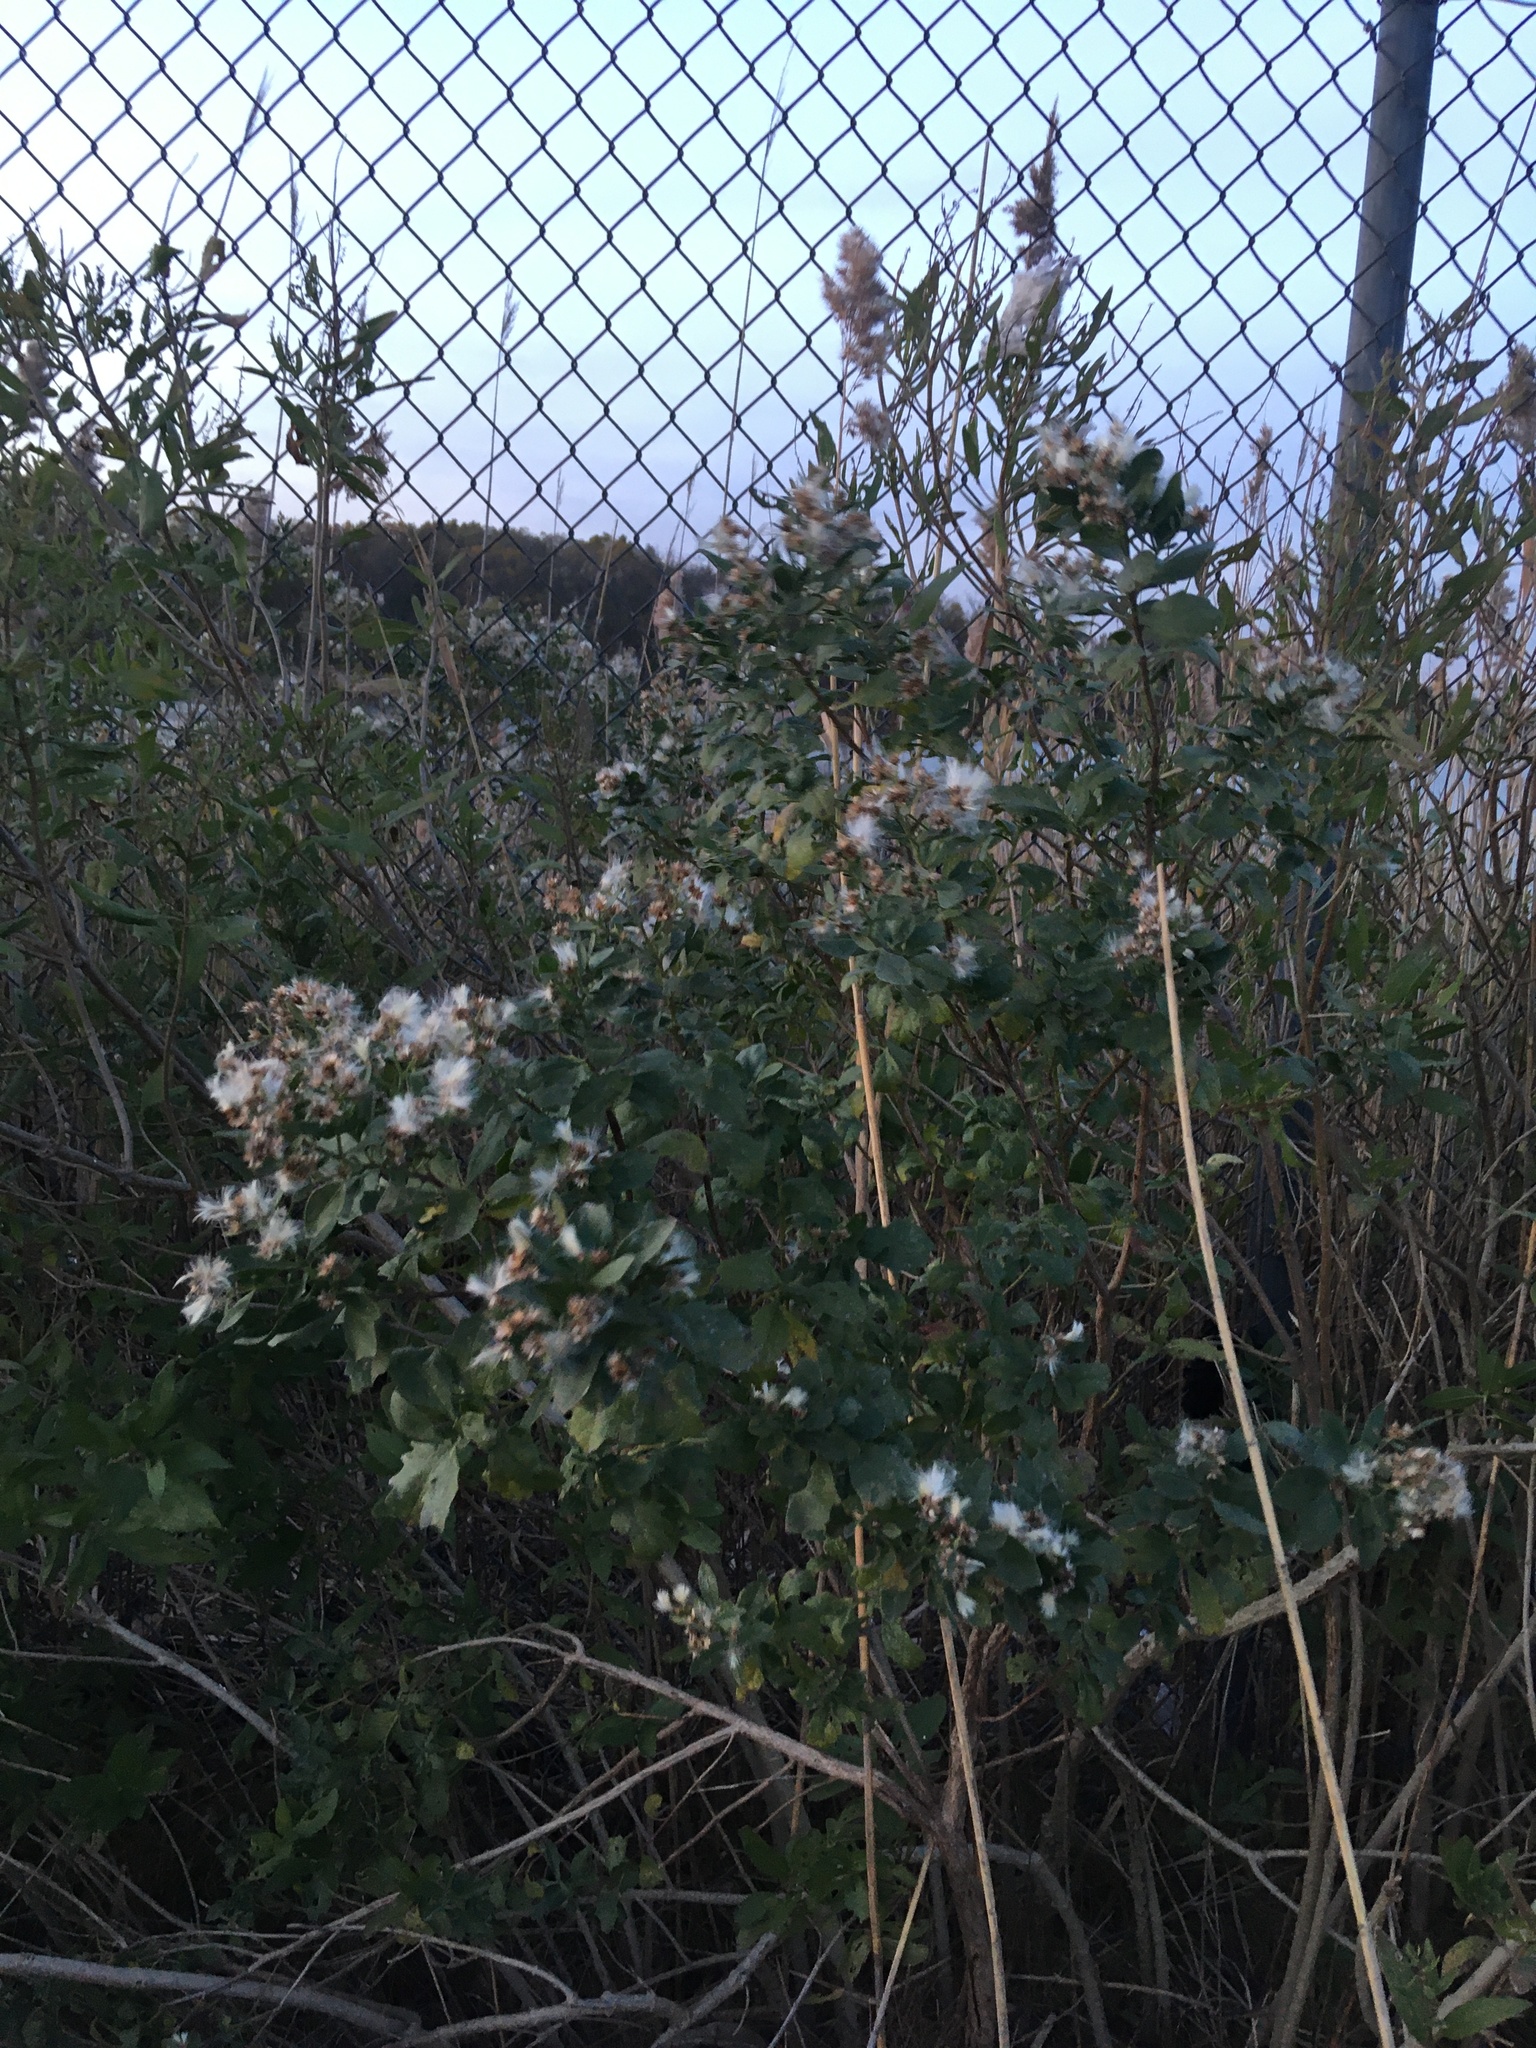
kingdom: Plantae
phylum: Tracheophyta
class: Magnoliopsida
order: Asterales
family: Asteraceae
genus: Baccharis
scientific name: Baccharis halimifolia
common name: Eastern baccharis
